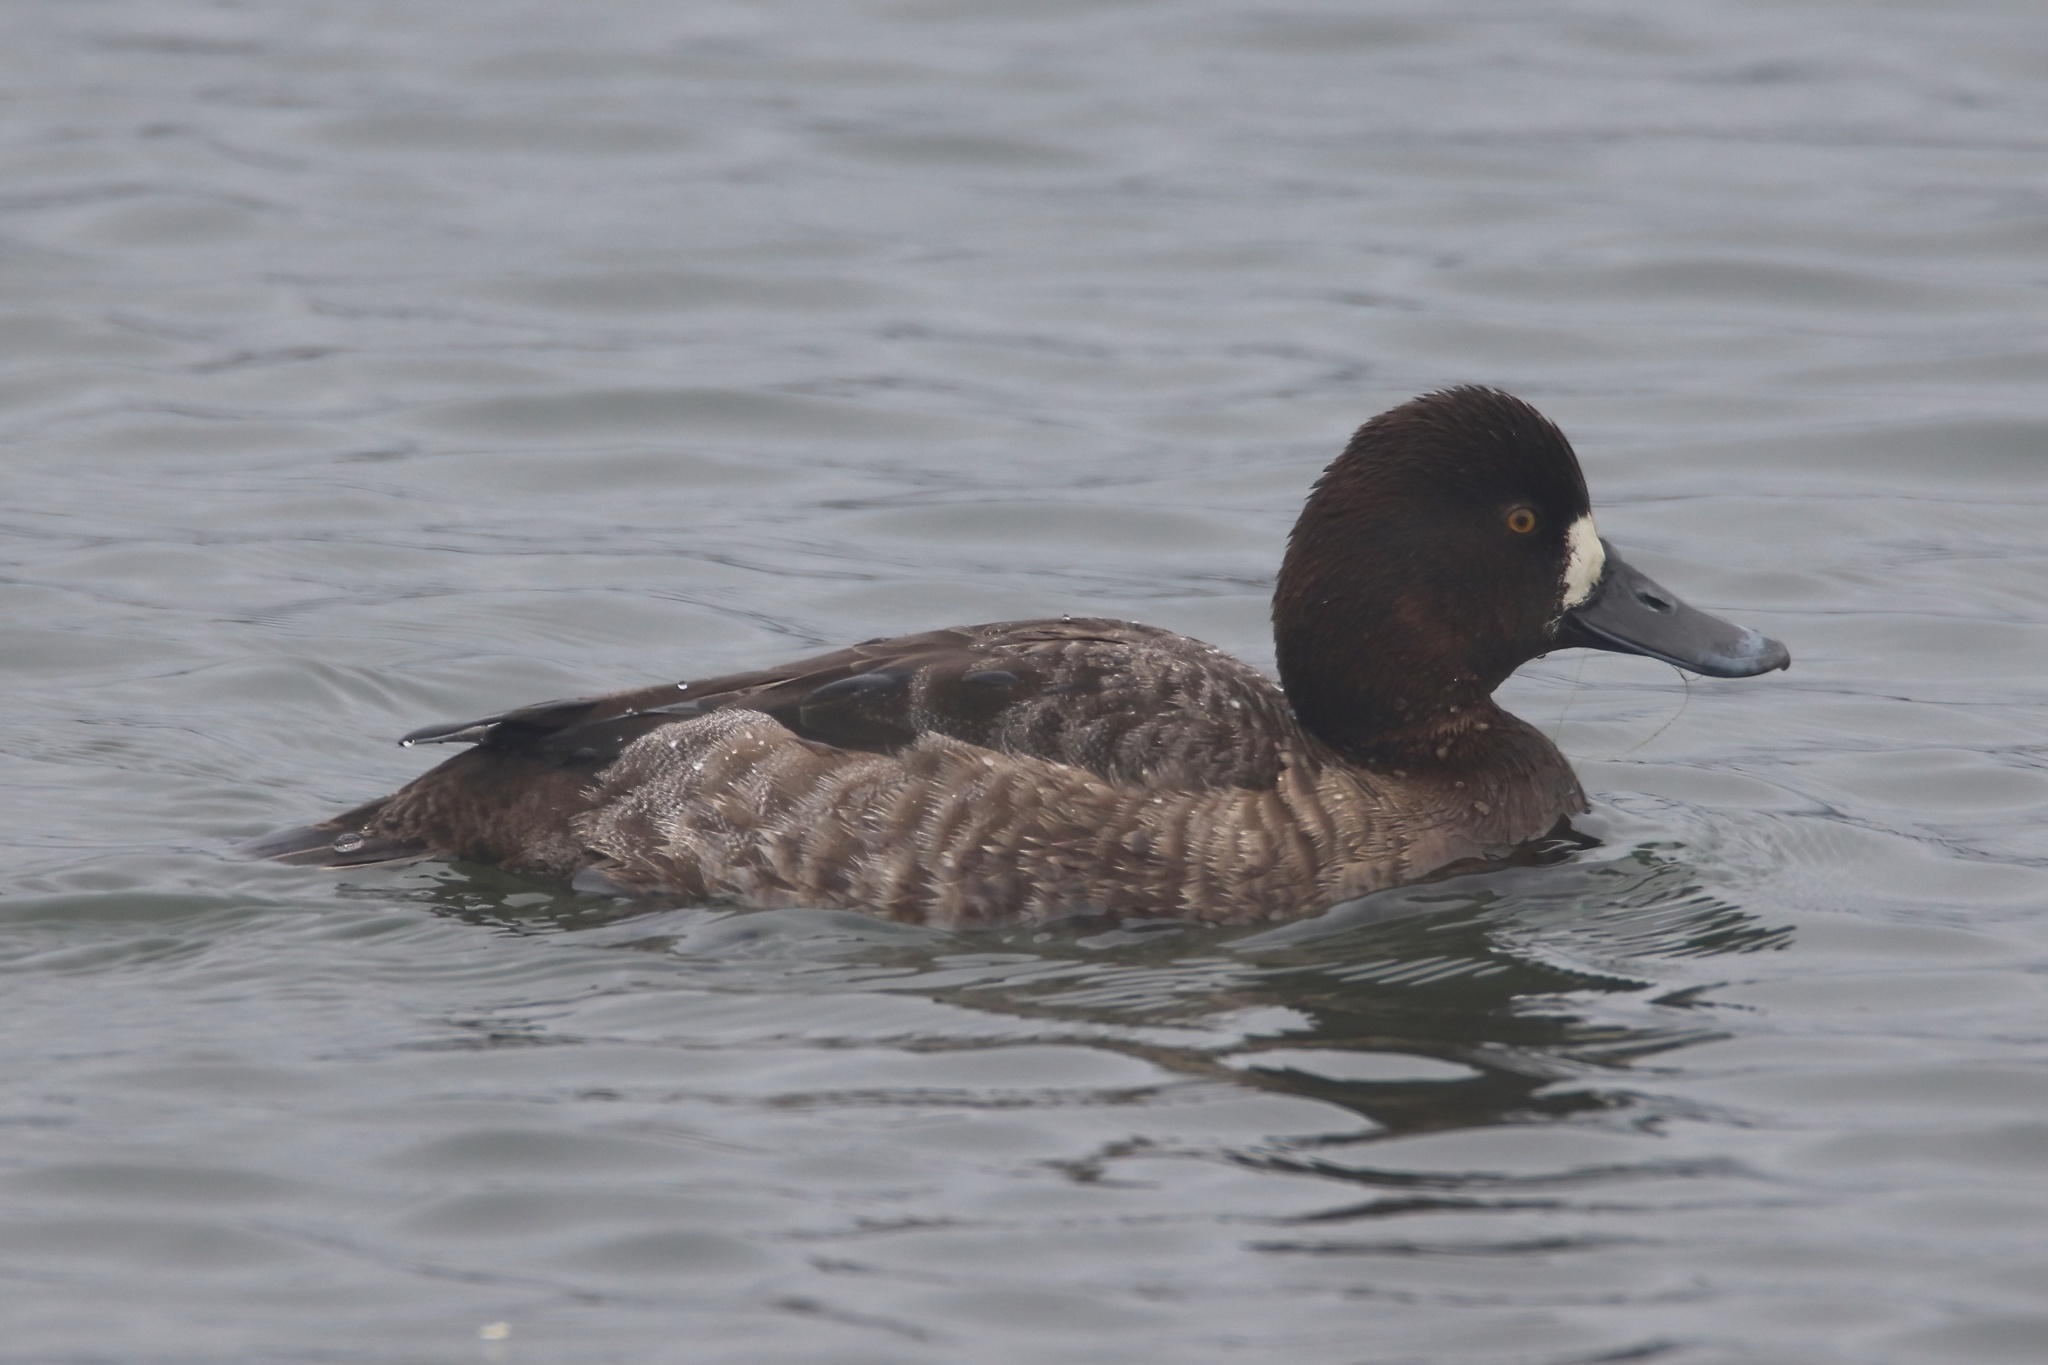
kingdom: Animalia
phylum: Chordata
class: Aves
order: Anseriformes
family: Anatidae
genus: Aythya
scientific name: Aythya affinis
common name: Lesser scaup
